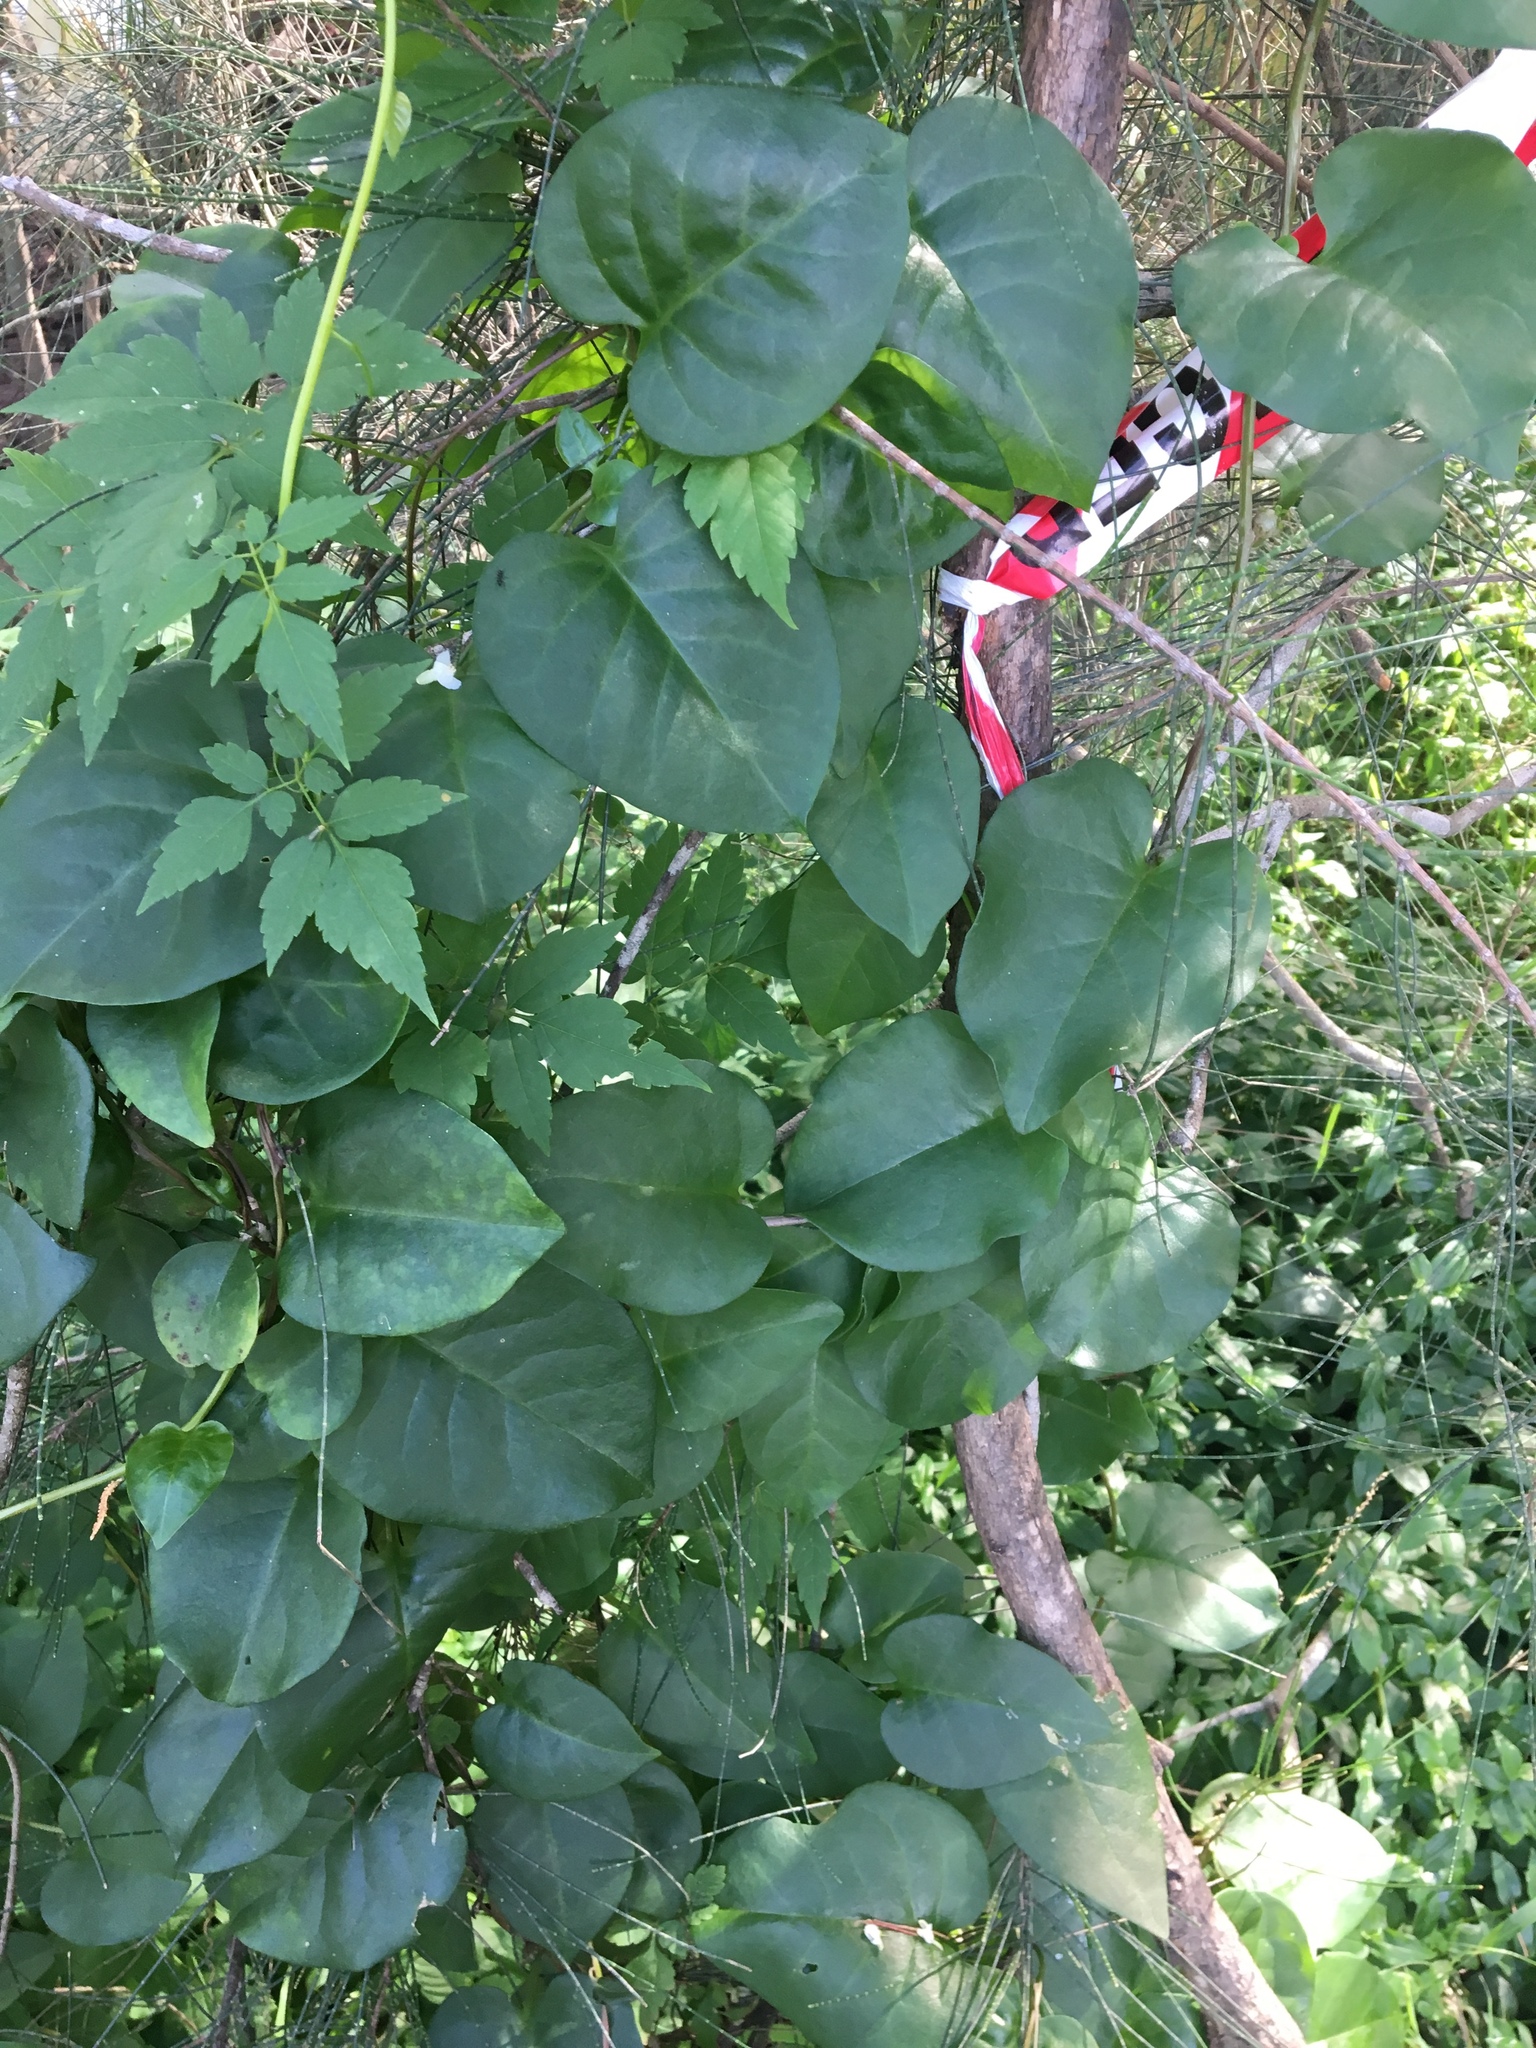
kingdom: Plantae
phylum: Tracheophyta
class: Magnoliopsida
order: Caryophyllales
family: Basellaceae
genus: Anredera
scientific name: Anredera cordifolia
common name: Heartleaf madeiravine
